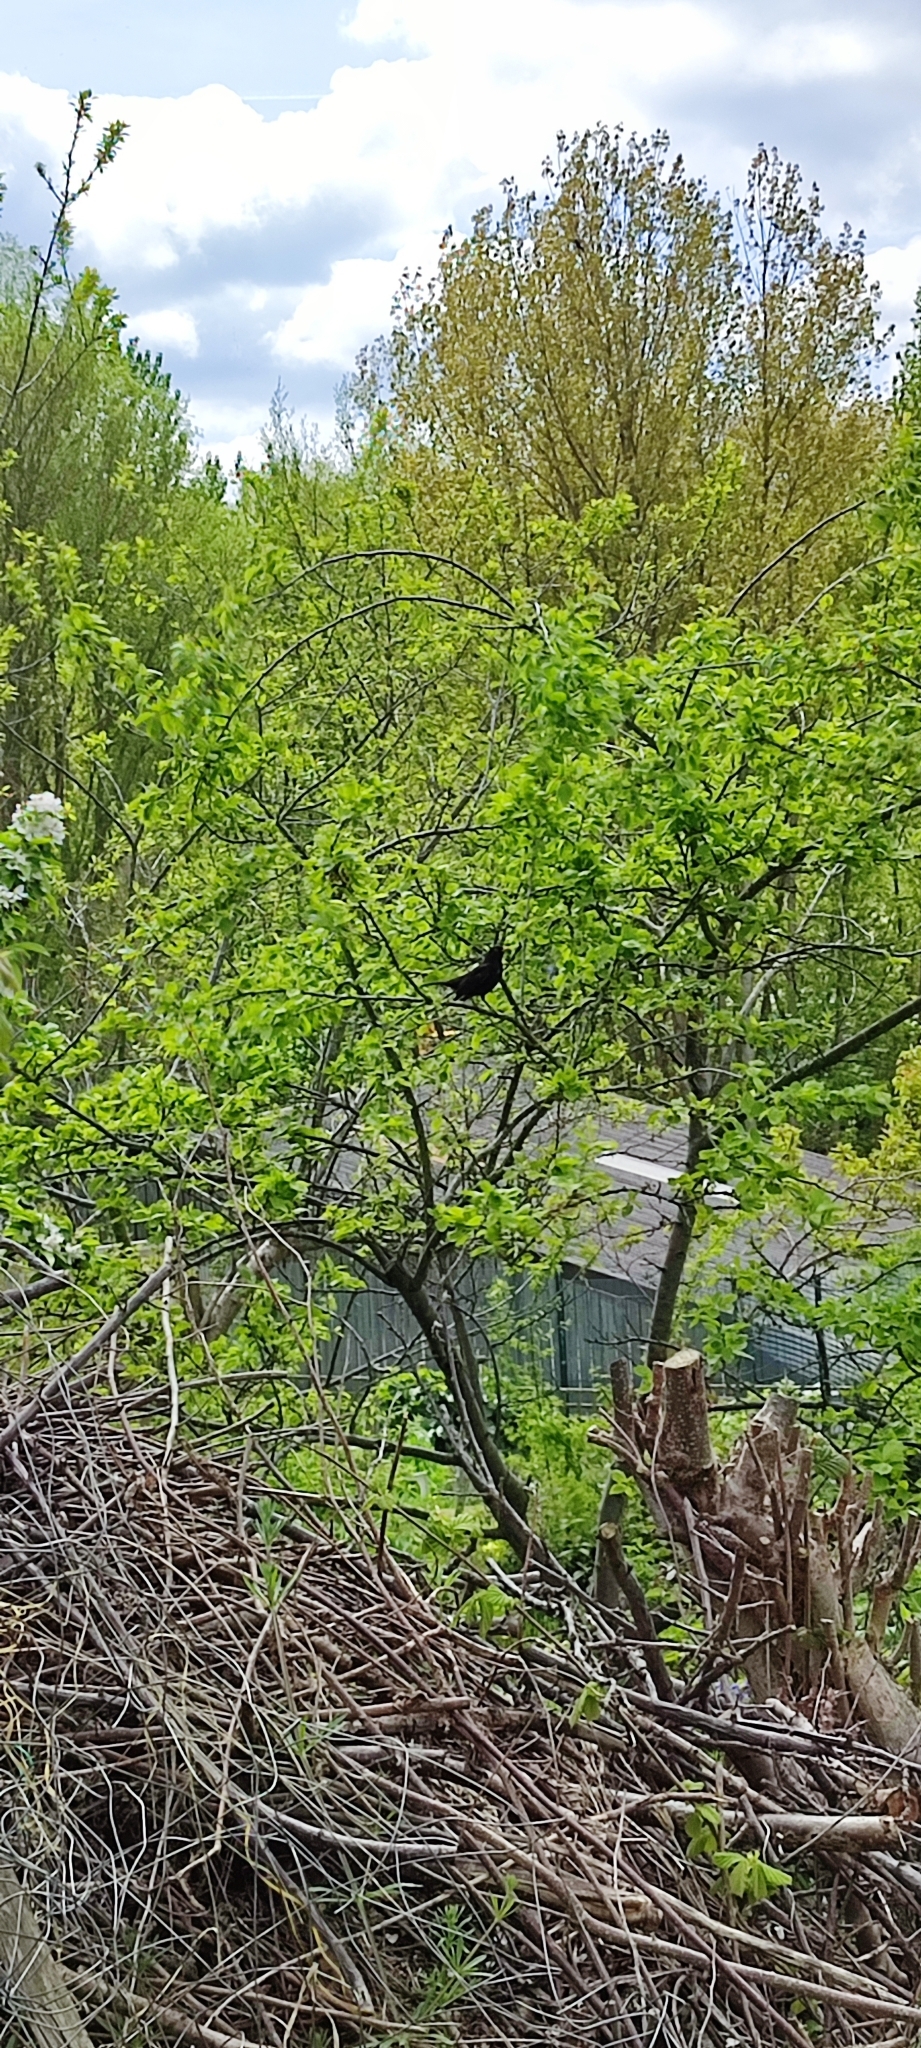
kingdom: Animalia
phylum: Chordata
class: Aves
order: Passeriformes
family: Turdidae
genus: Turdus
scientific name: Turdus merula
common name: Common blackbird
